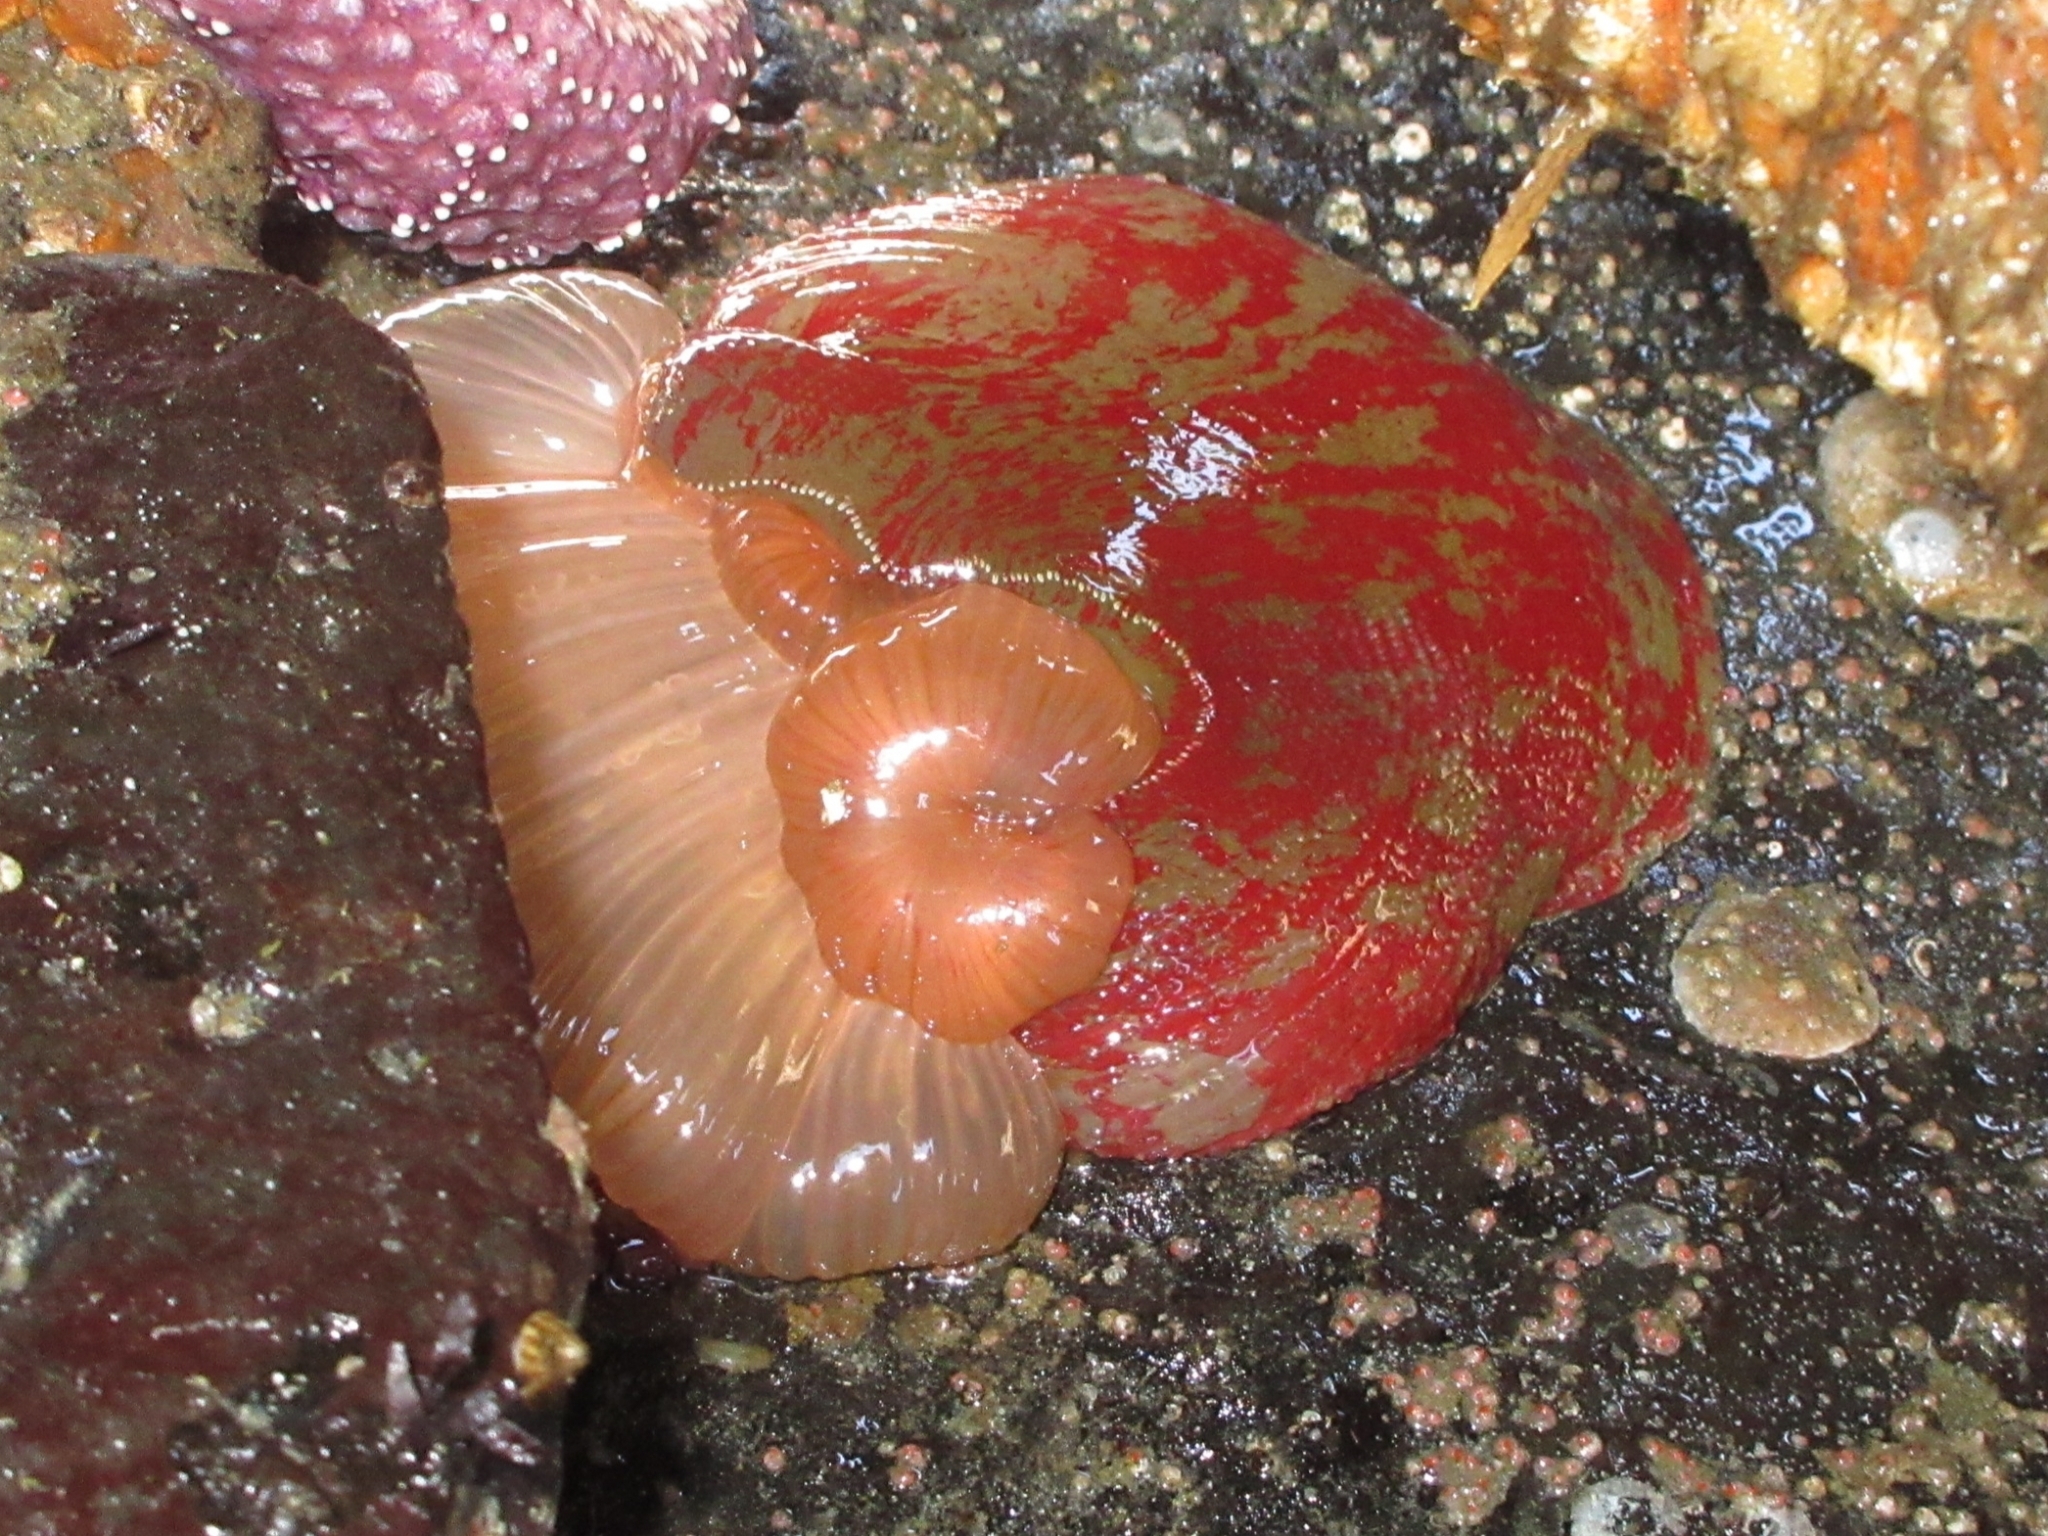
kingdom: Animalia
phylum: Cnidaria
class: Anthozoa
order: Actiniaria
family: Actiniidae
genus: Urticina
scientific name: Urticina grebelnyi
